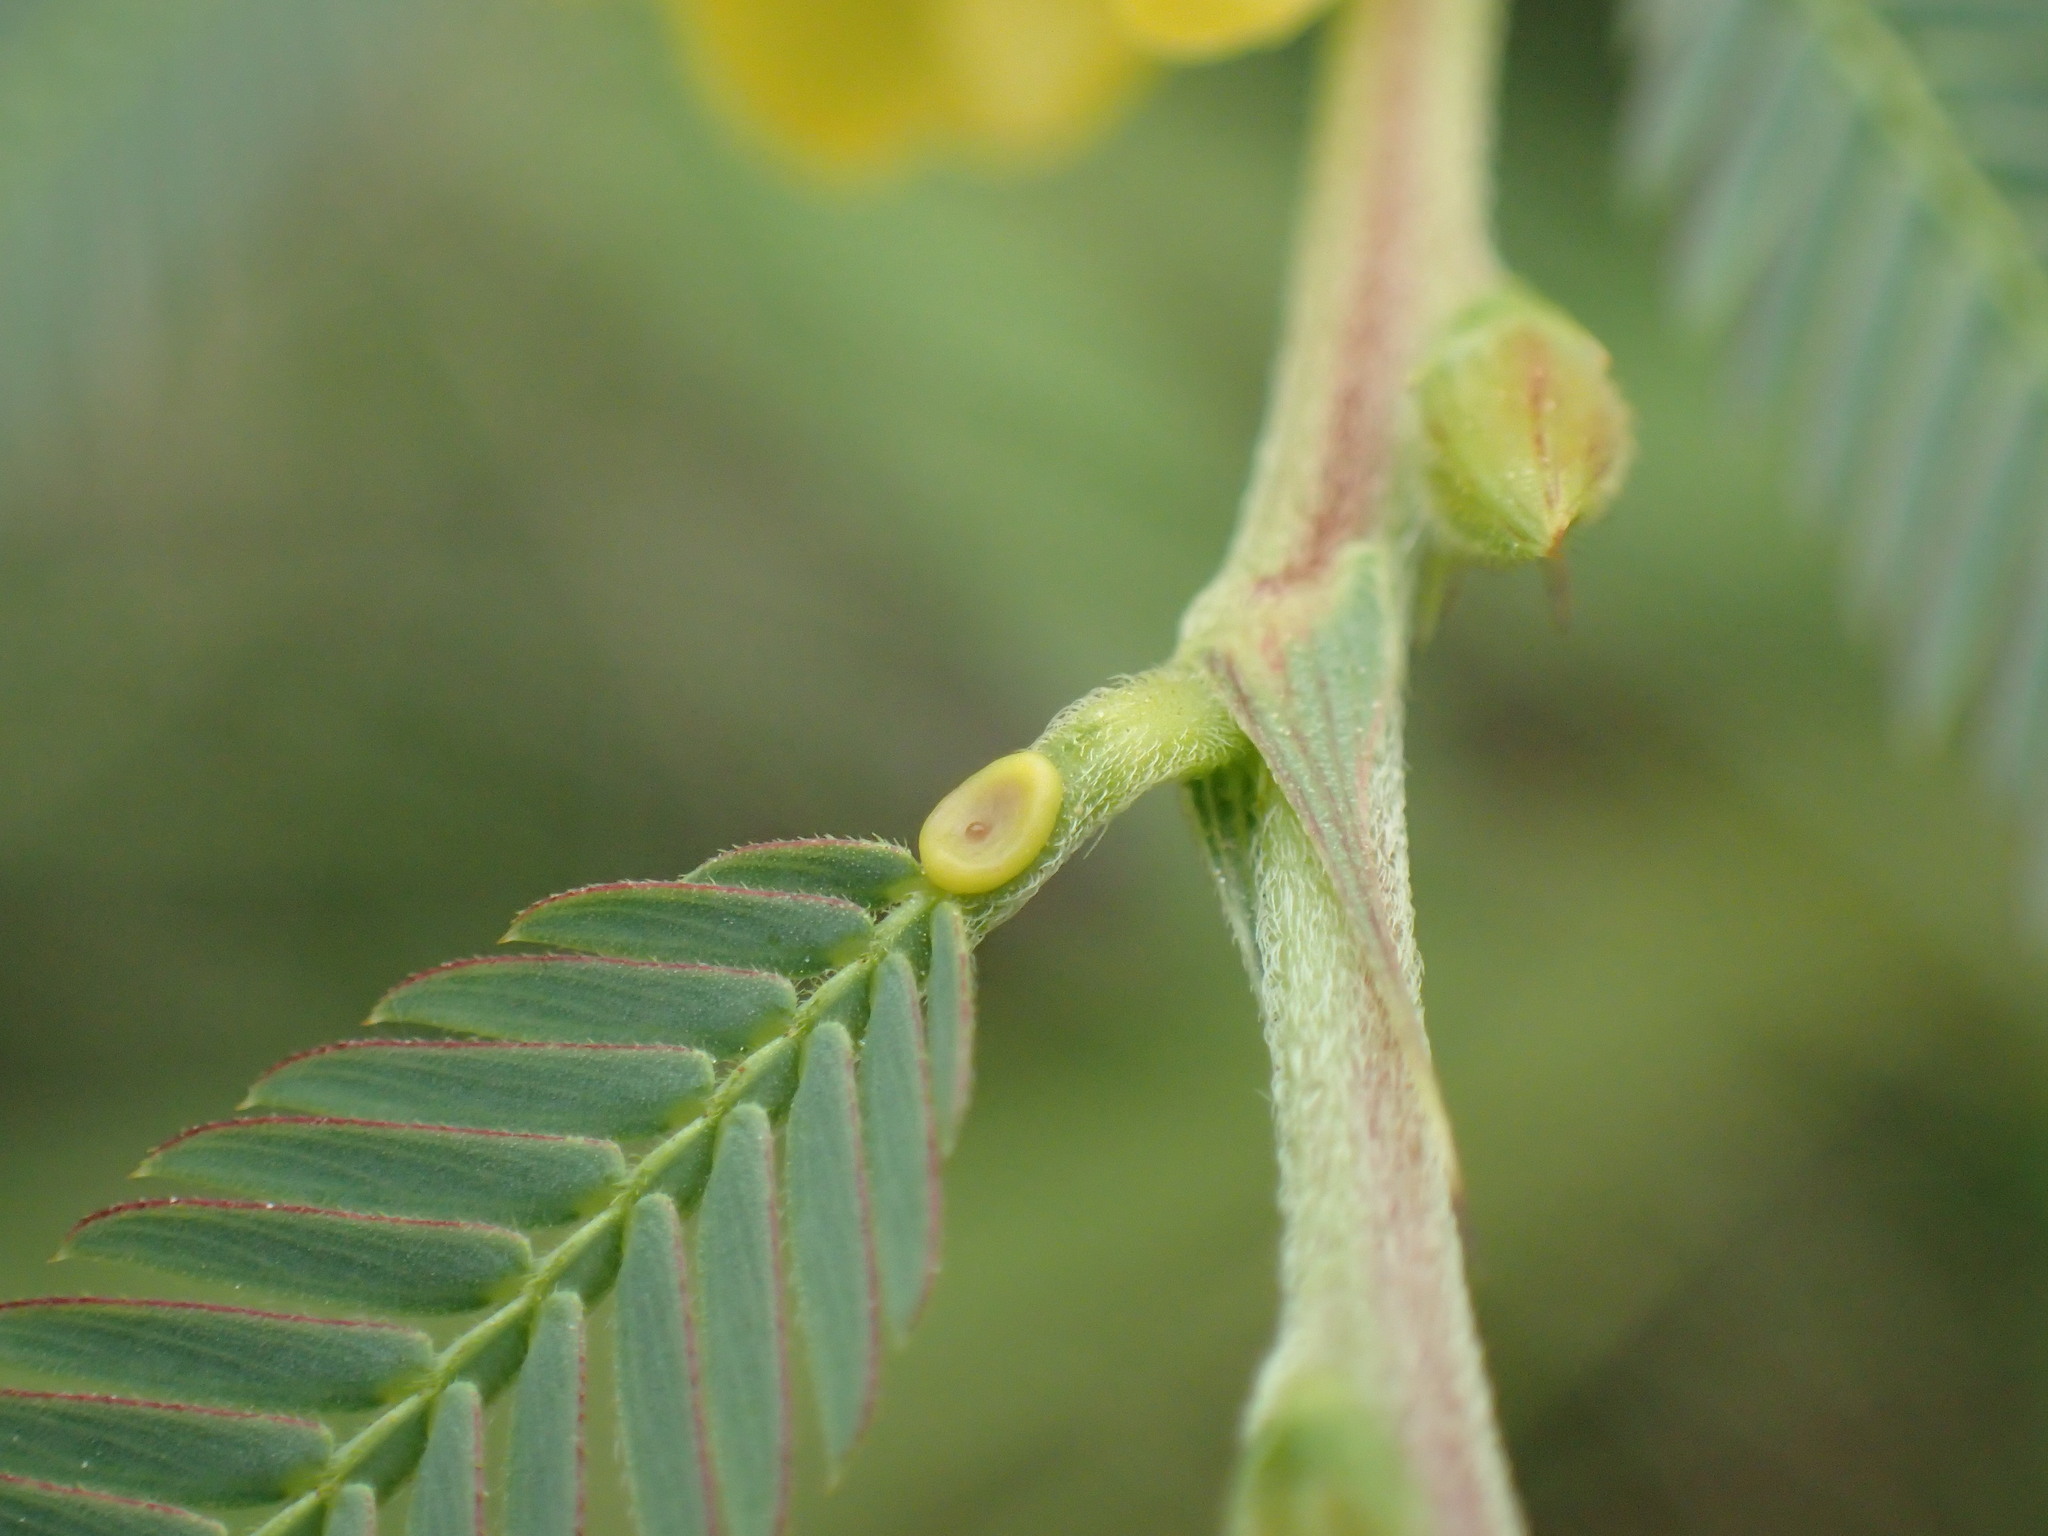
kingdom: Plantae
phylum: Tracheophyta
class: Magnoliopsida
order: Fabales
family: Fabaceae
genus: Chamaecrista
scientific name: Chamaecrista comosa
